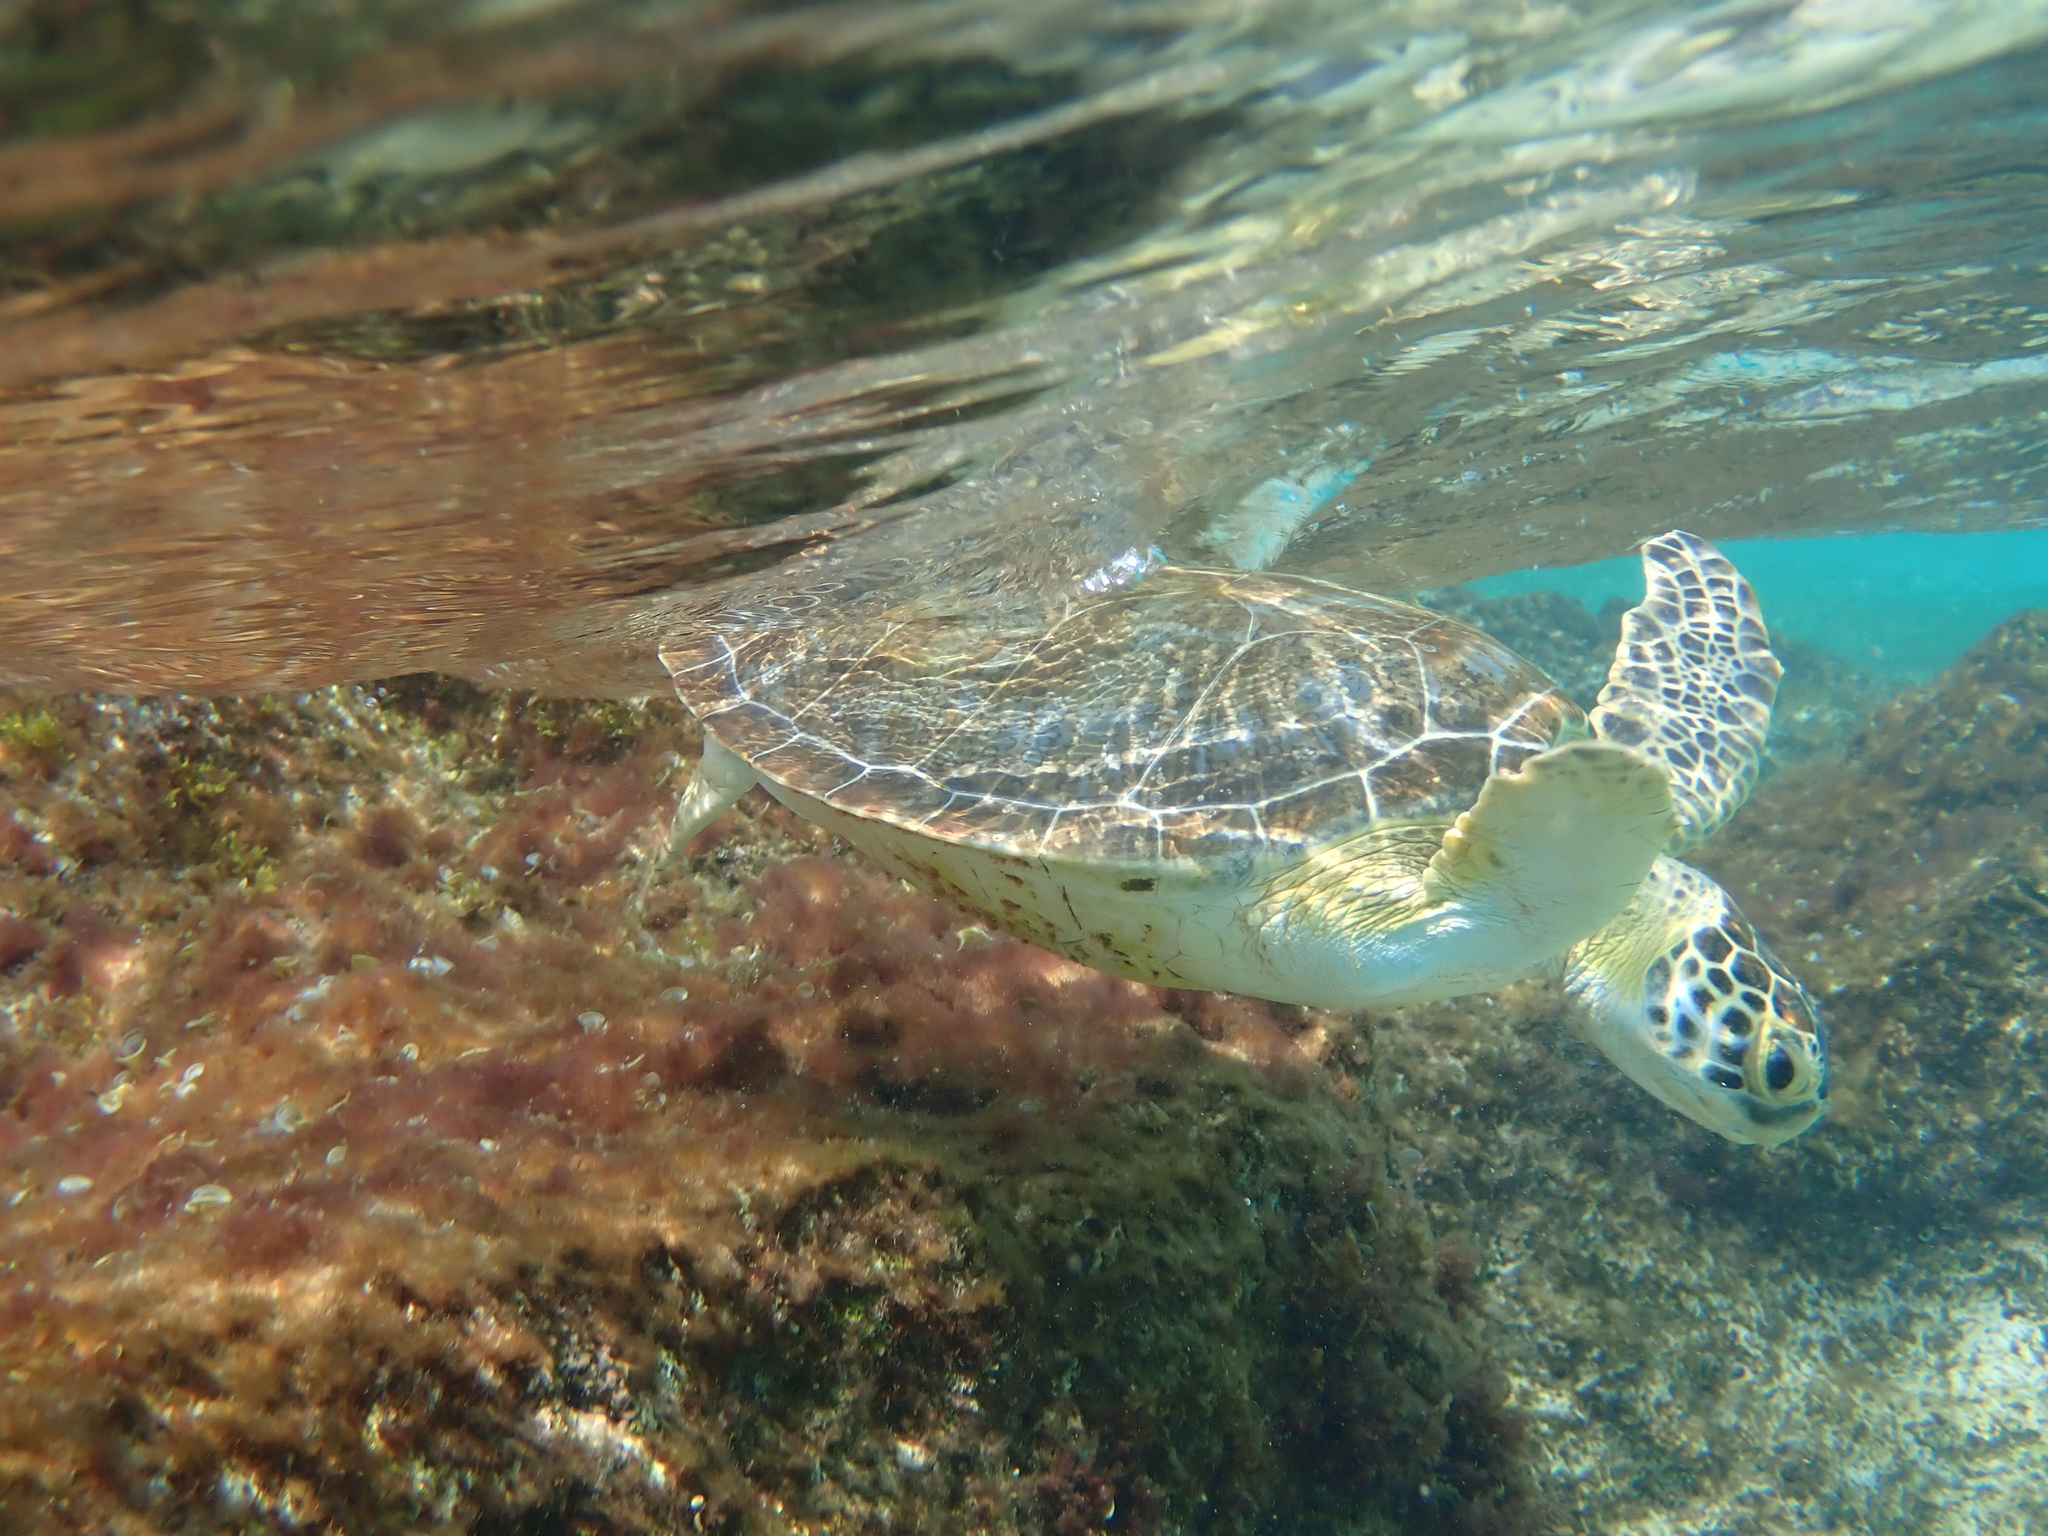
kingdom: Animalia
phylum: Chordata
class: Testudines
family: Cheloniidae
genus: Chelonia
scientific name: Chelonia mydas
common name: Green turtle
